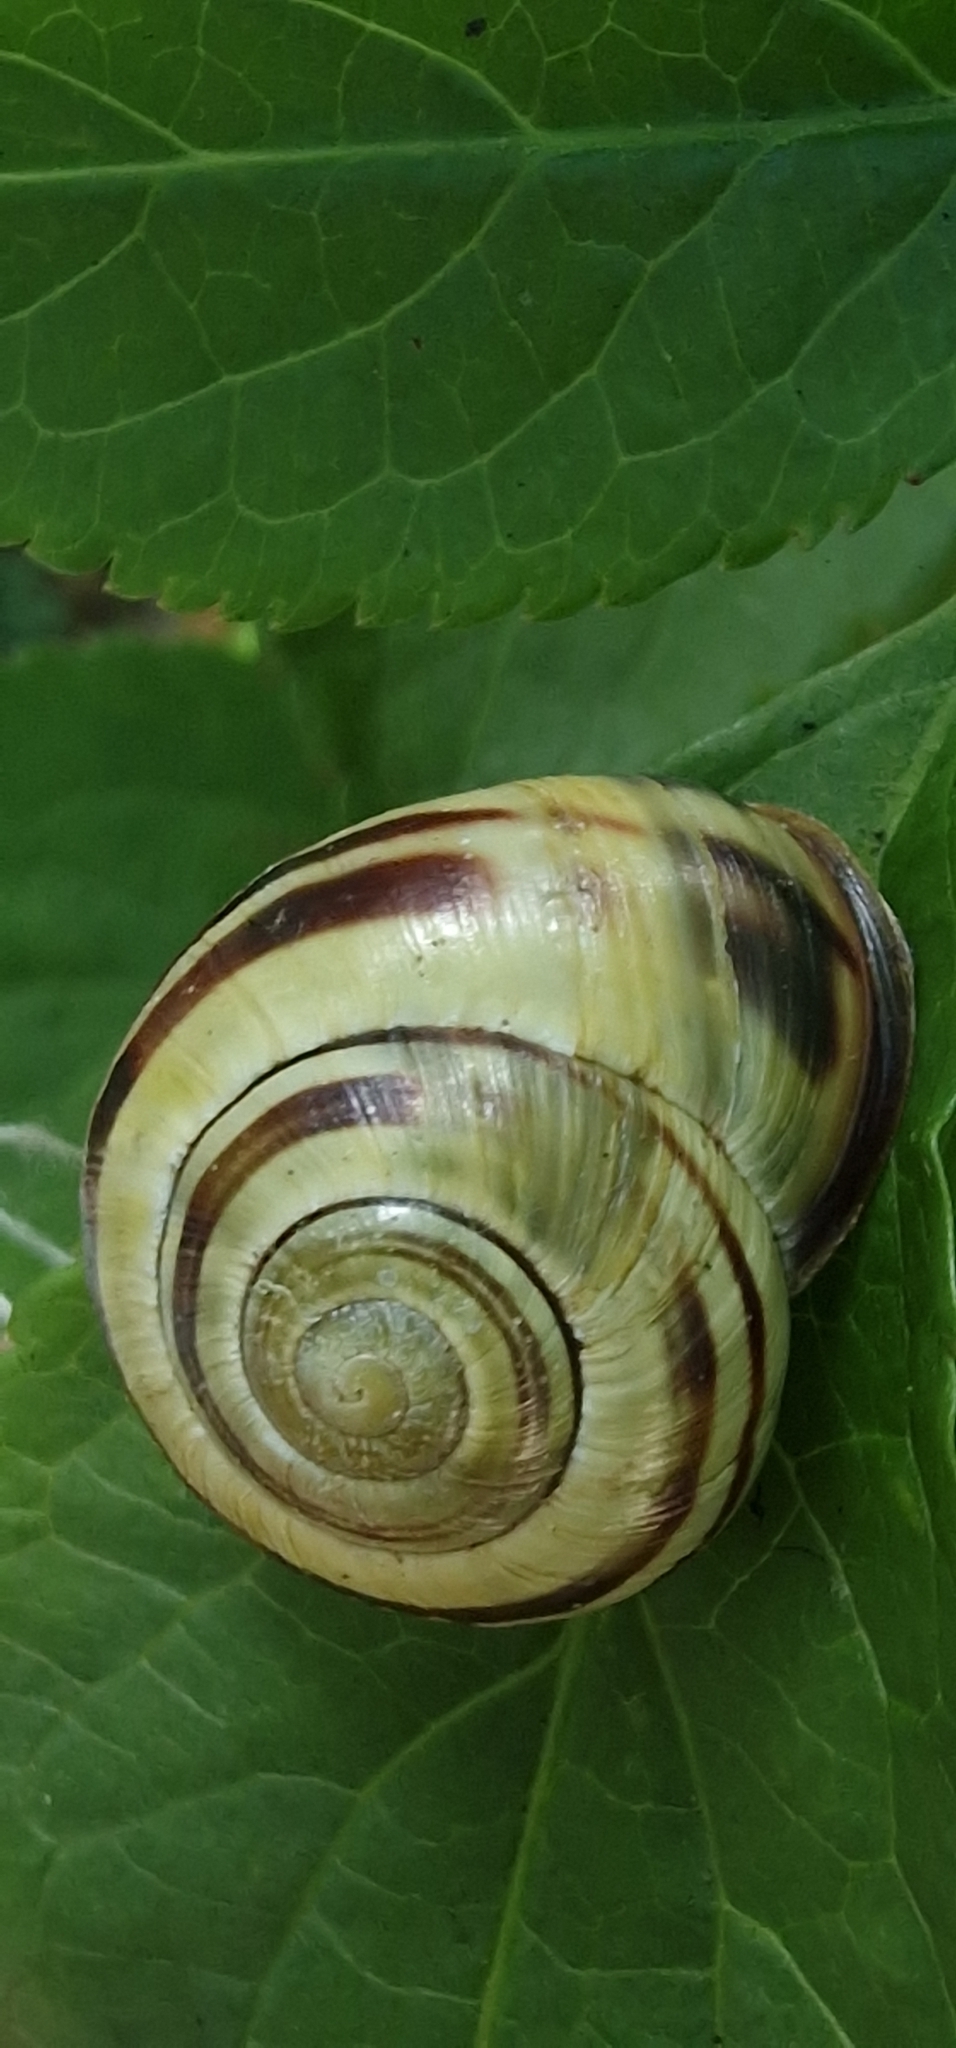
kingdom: Animalia
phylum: Mollusca
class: Gastropoda
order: Stylommatophora
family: Helicidae
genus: Cepaea
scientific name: Cepaea nemoralis
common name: Grovesnail
